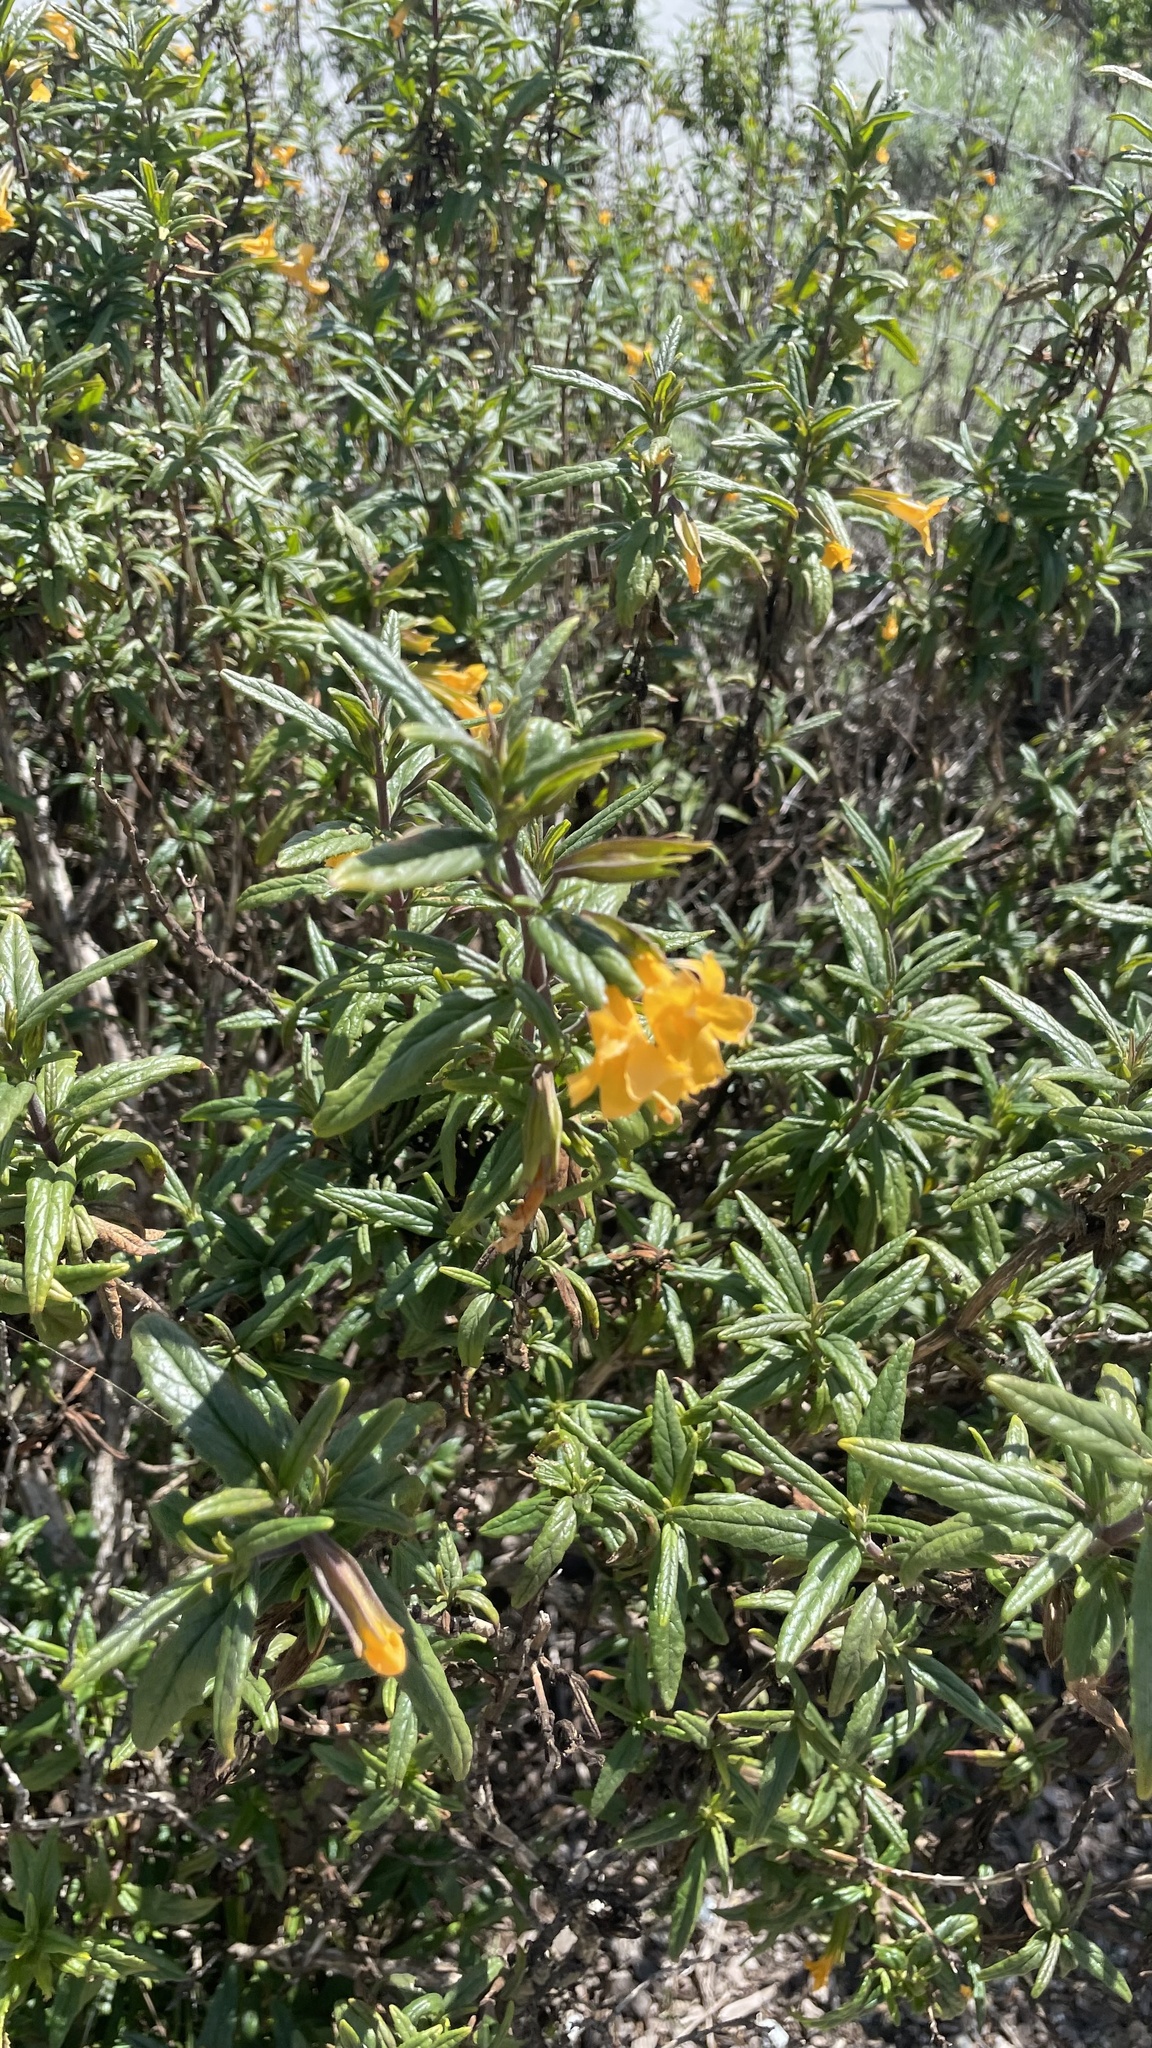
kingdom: Plantae
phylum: Tracheophyta
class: Magnoliopsida
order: Lamiales
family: Phrymaceae
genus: Diplacus
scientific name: Diplacus aurantiacus
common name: Bush monkey-flower
